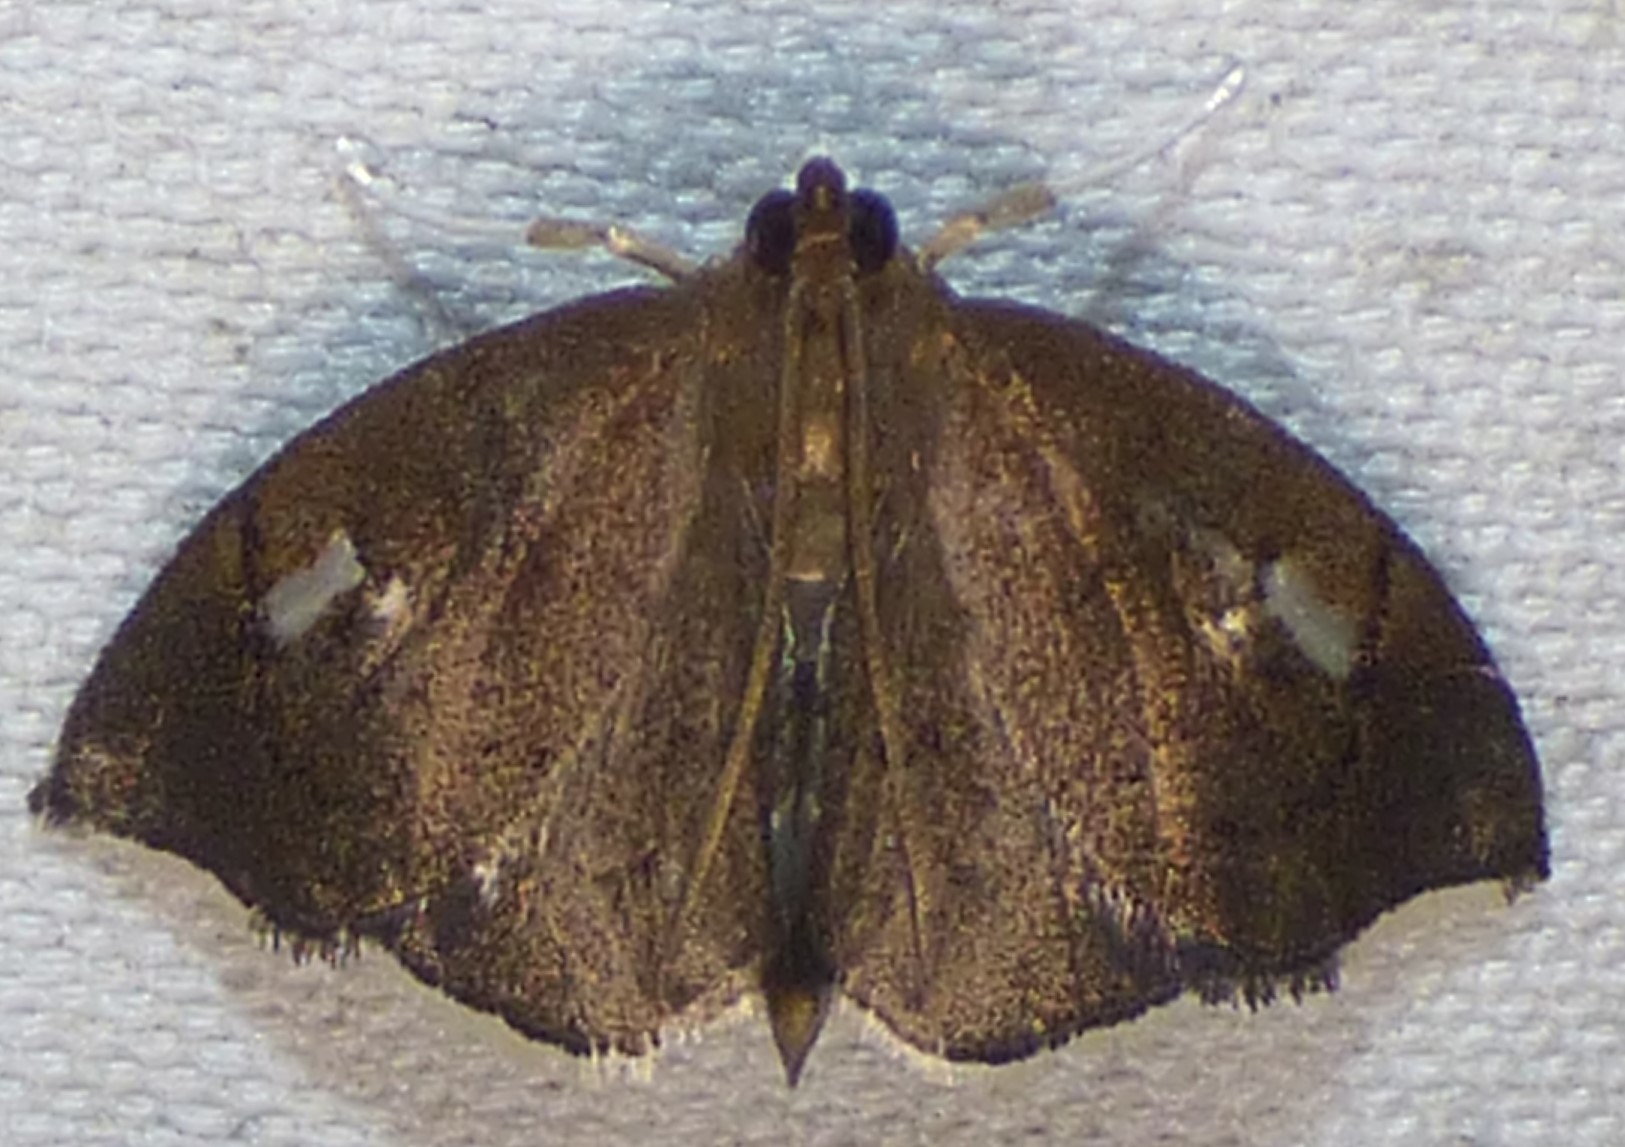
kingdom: Animalia
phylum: Arthropoda
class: Insecta
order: Lepidoptera
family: Crambidae
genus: Perispasta
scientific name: Perispasta caeculalis
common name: Titian peale's moth
